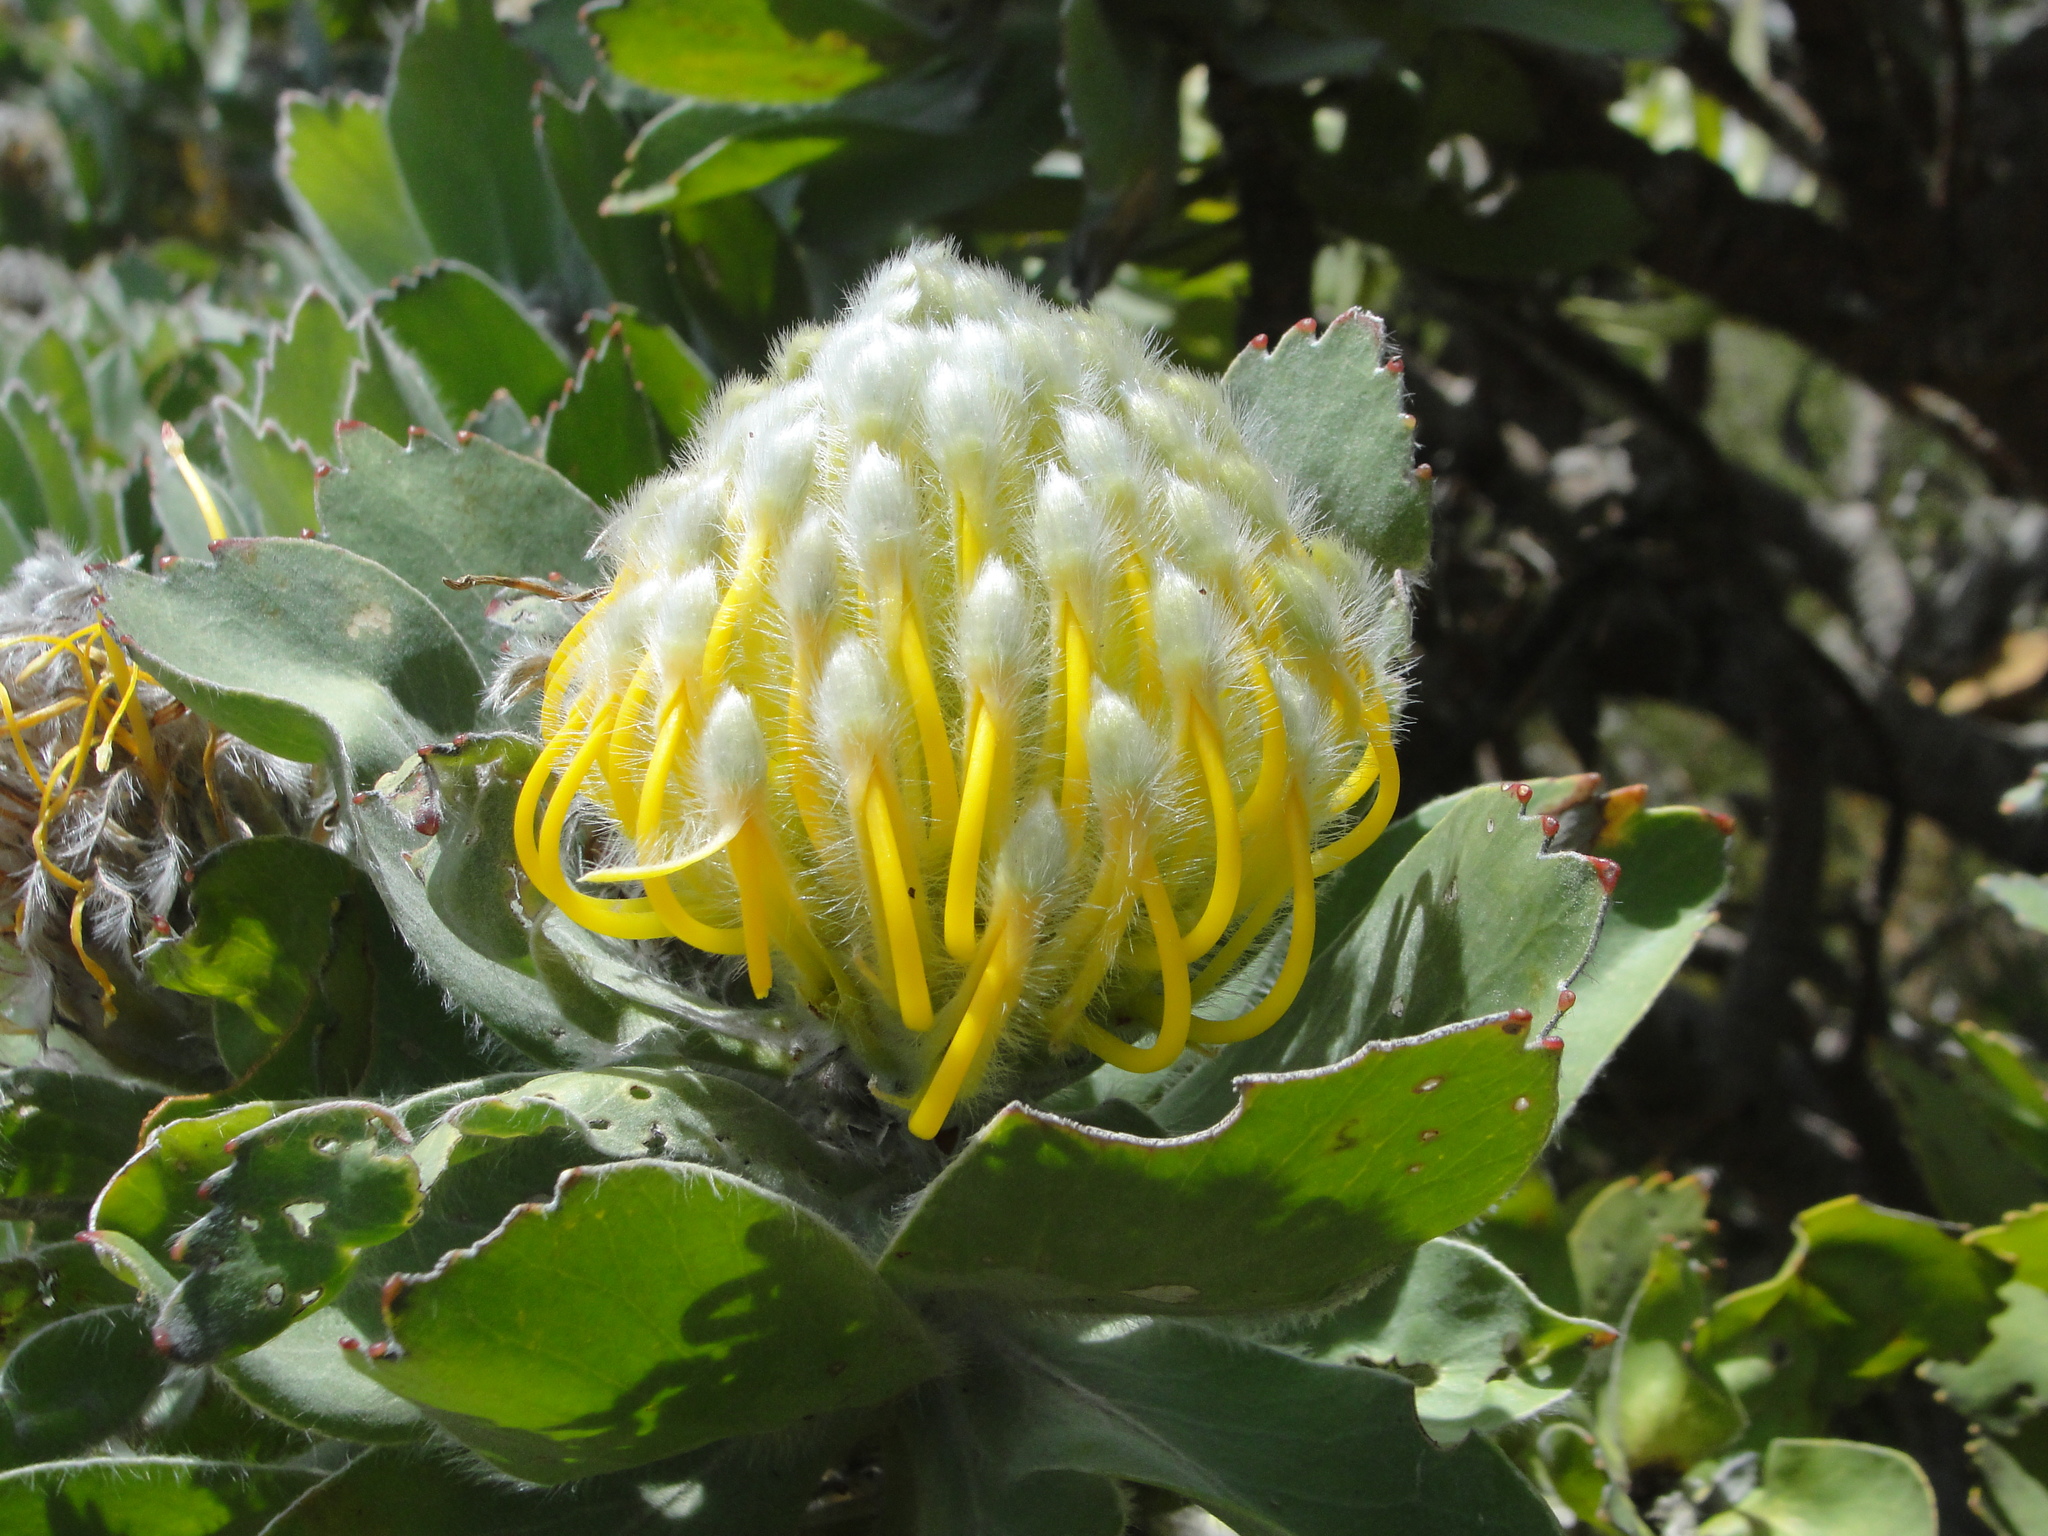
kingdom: Plantae
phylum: Tracheophyta
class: Magnoliopsida
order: Proteales
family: Proteaceae
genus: Leucospermum
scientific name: Leucospermum conocarpodendron
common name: Tree pincushion
